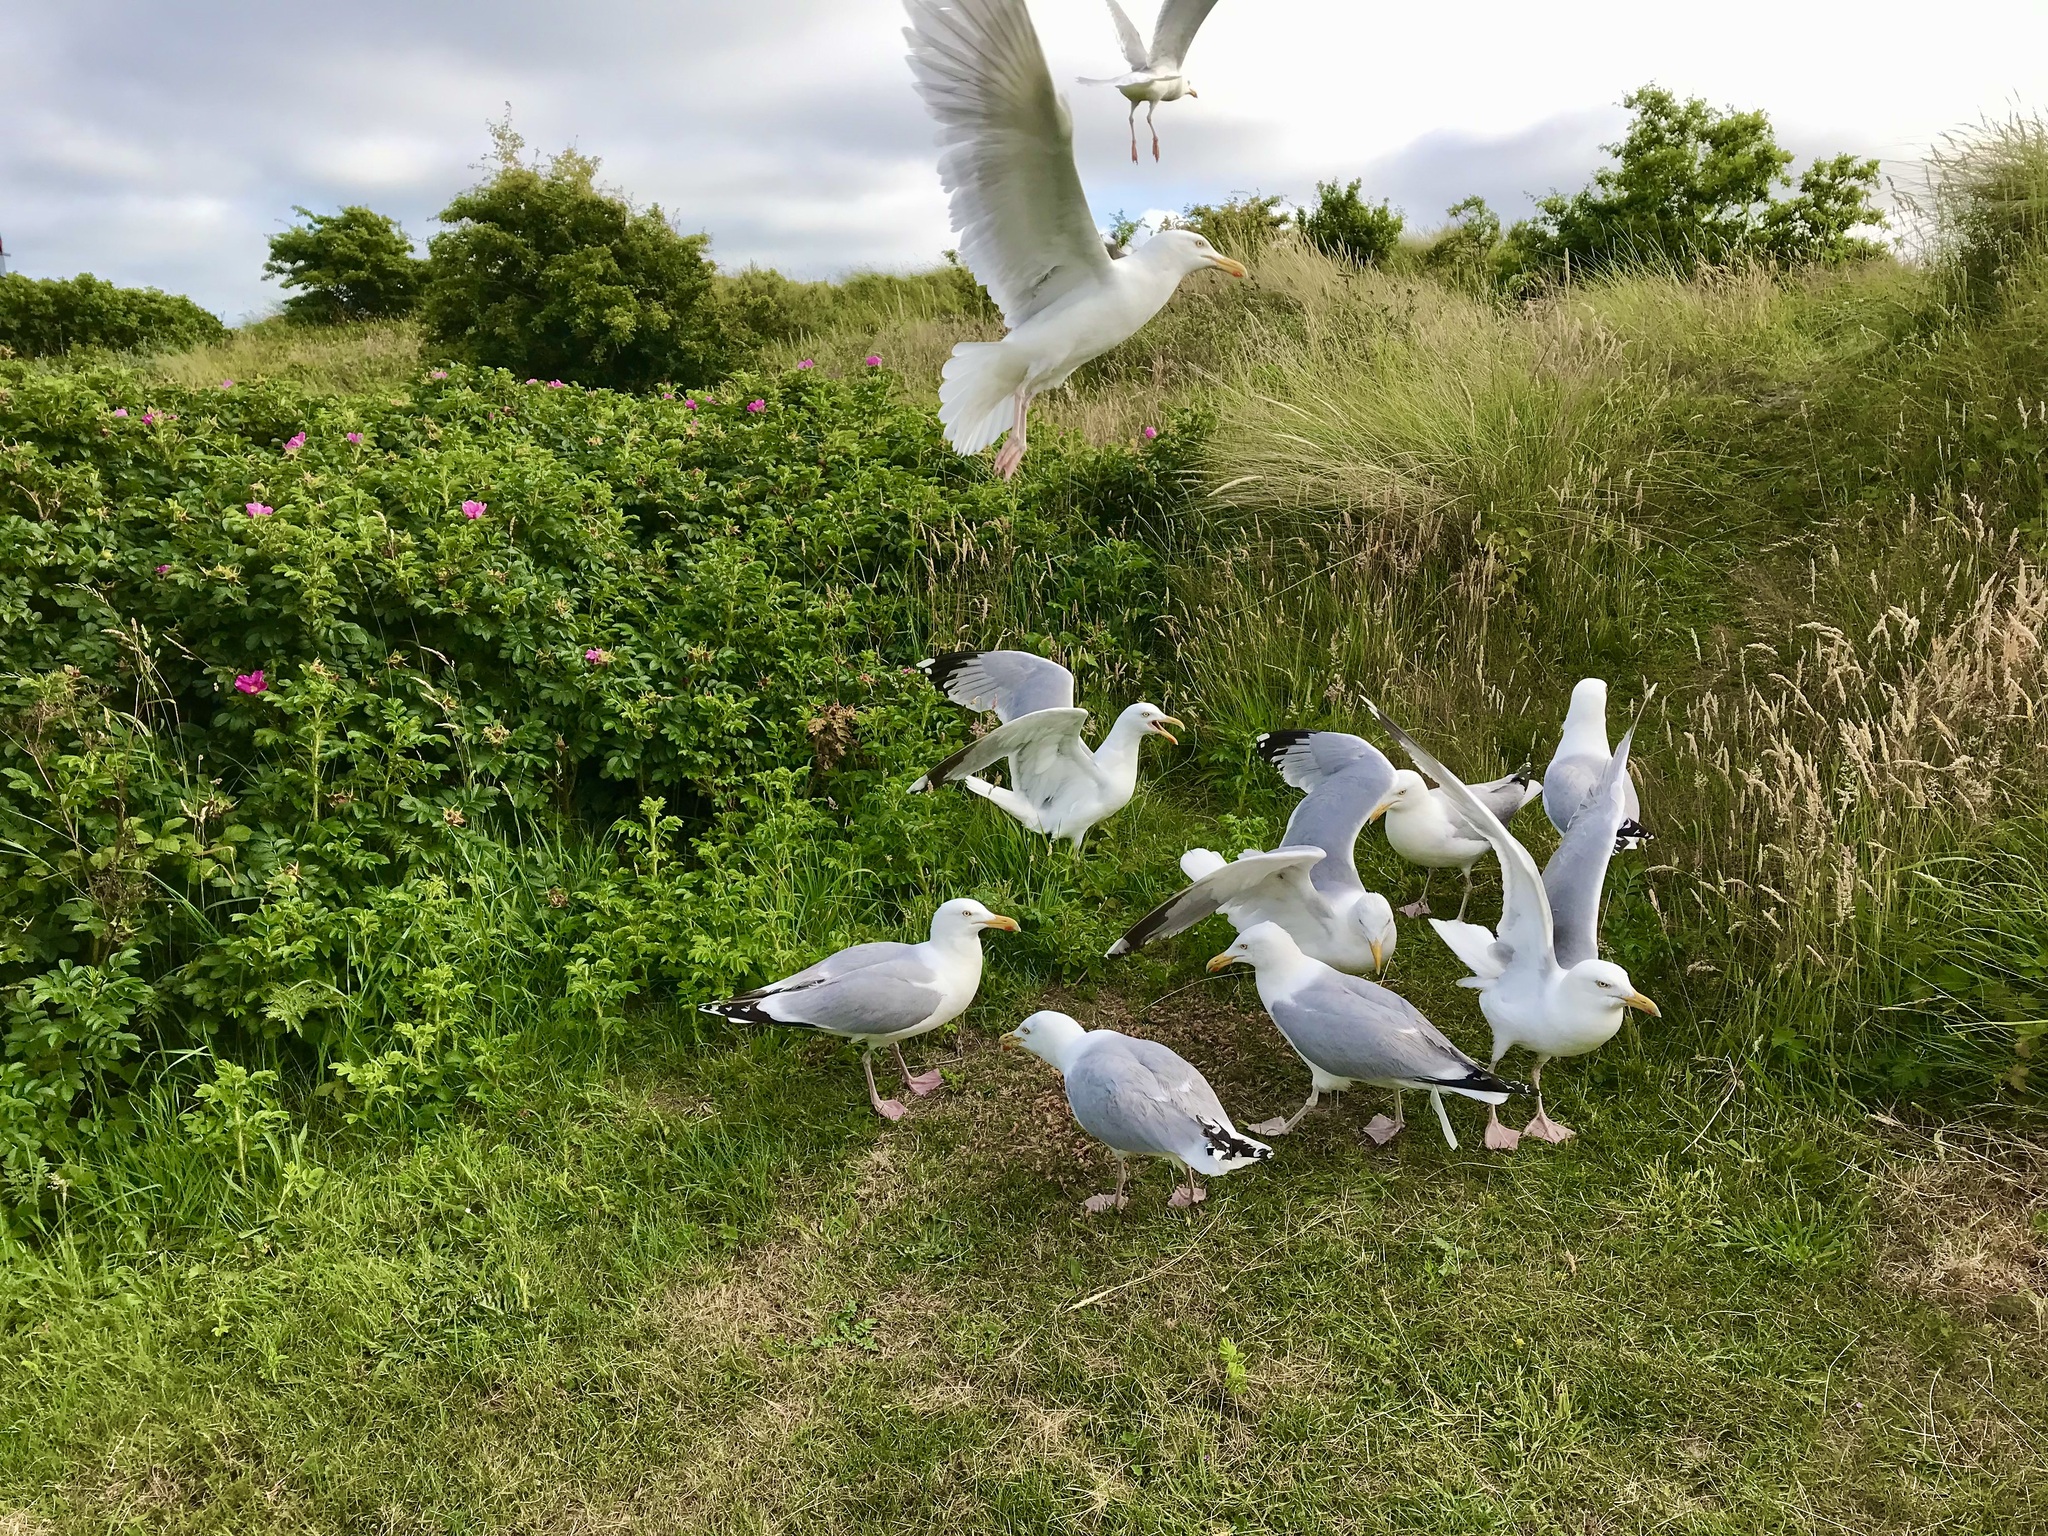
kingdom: Animalia
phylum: Chordata
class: Aves
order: Charadriiformes
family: Laridae
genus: Larus
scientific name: Larus argentatus
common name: Herring gull
